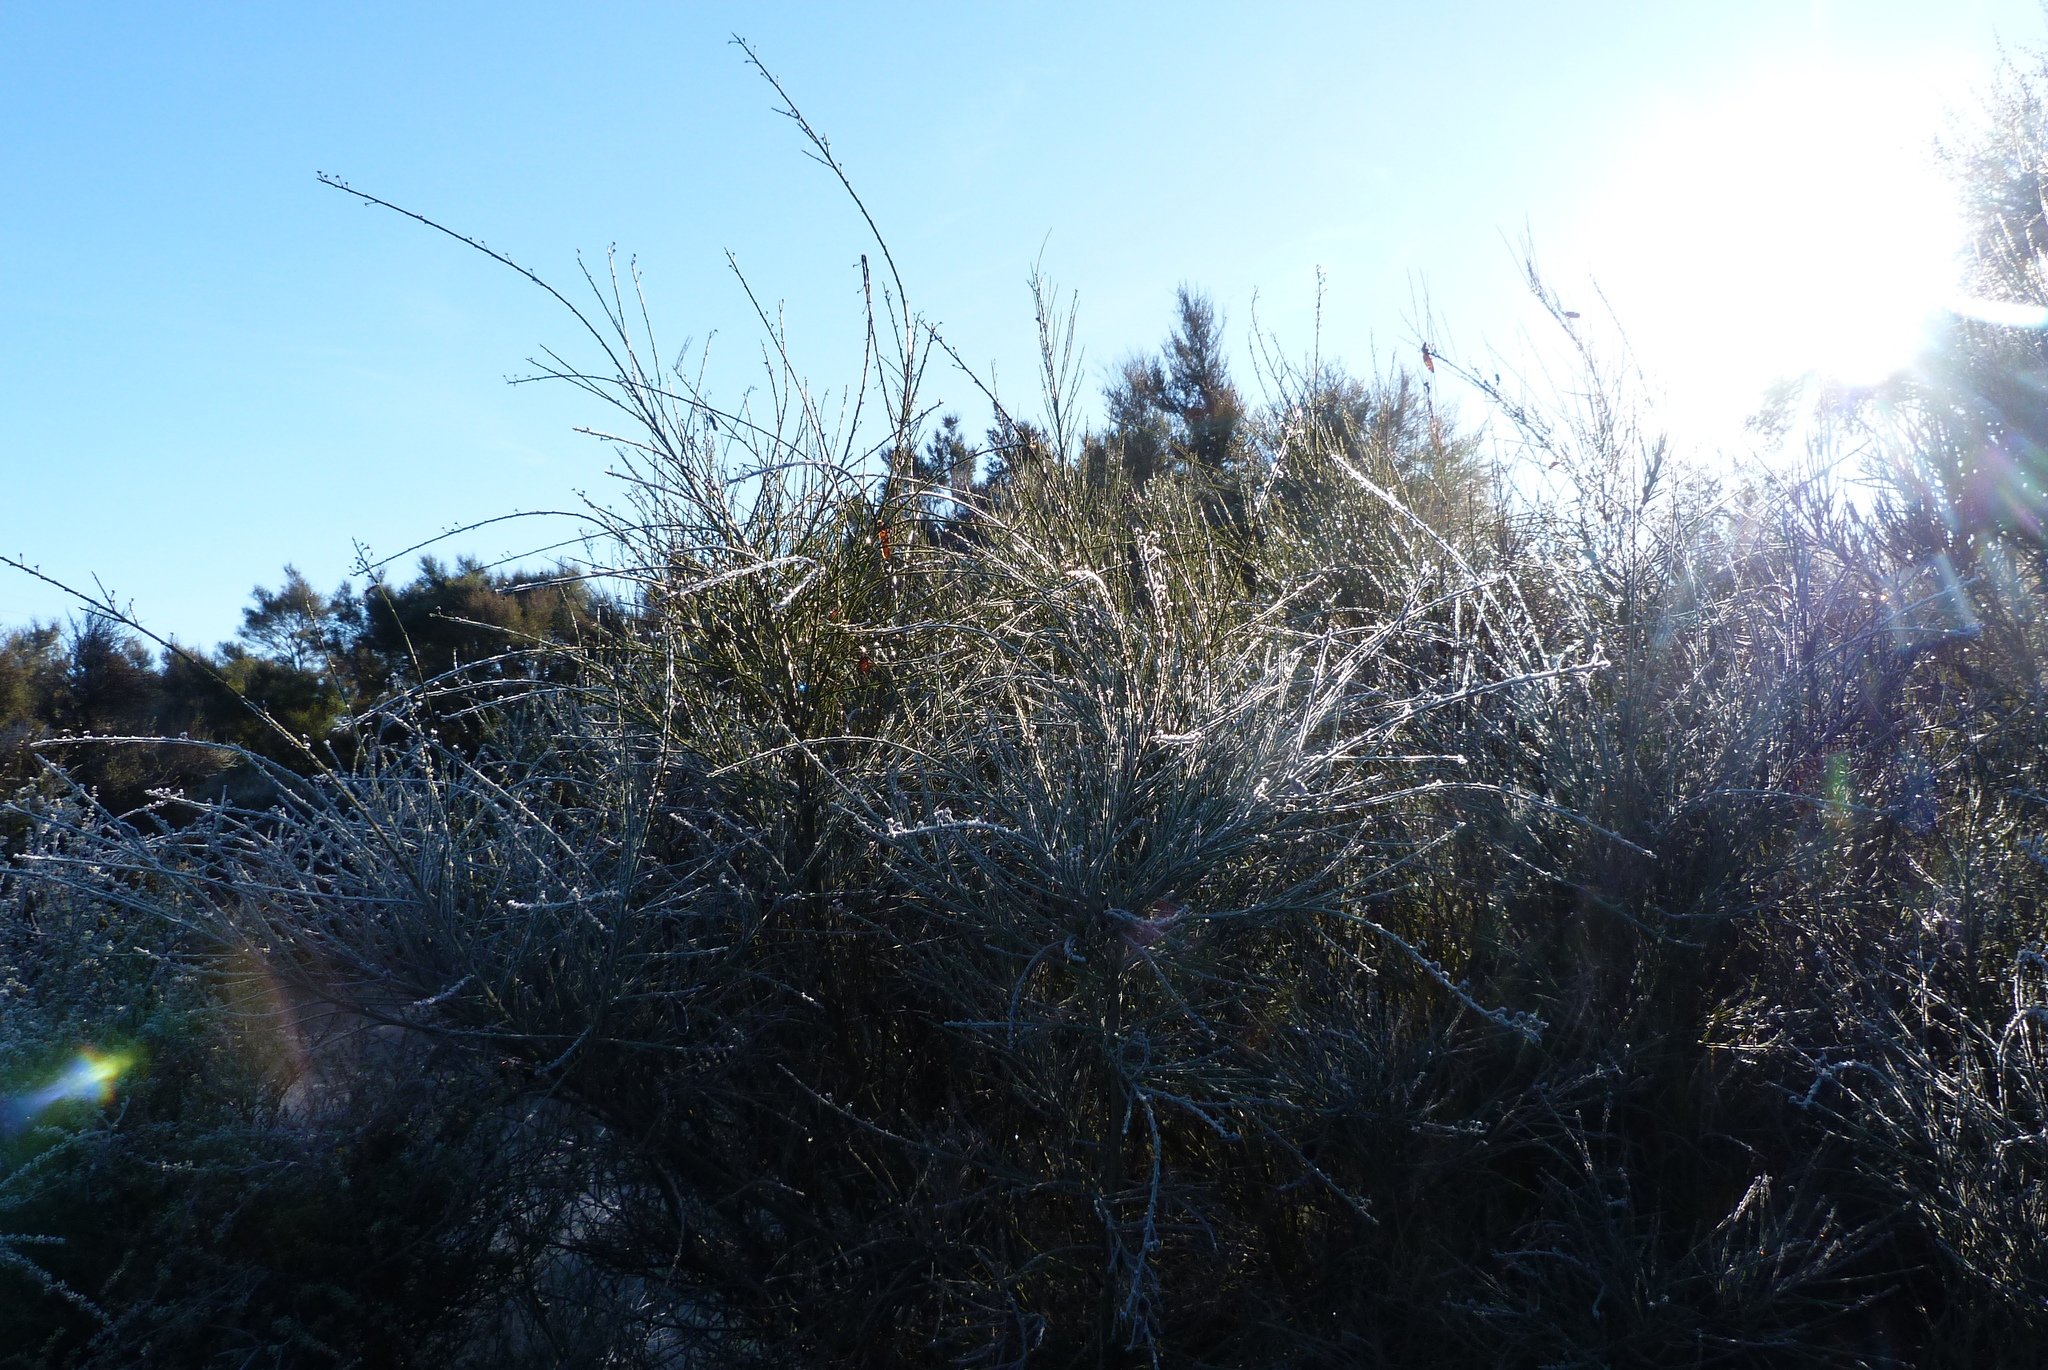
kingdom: Plantae
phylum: Tracheophyta
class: Magnoliopsida
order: Fabales
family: Fabaceae
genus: Cytisus
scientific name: Cytisus scoparius
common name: Scotch broom
